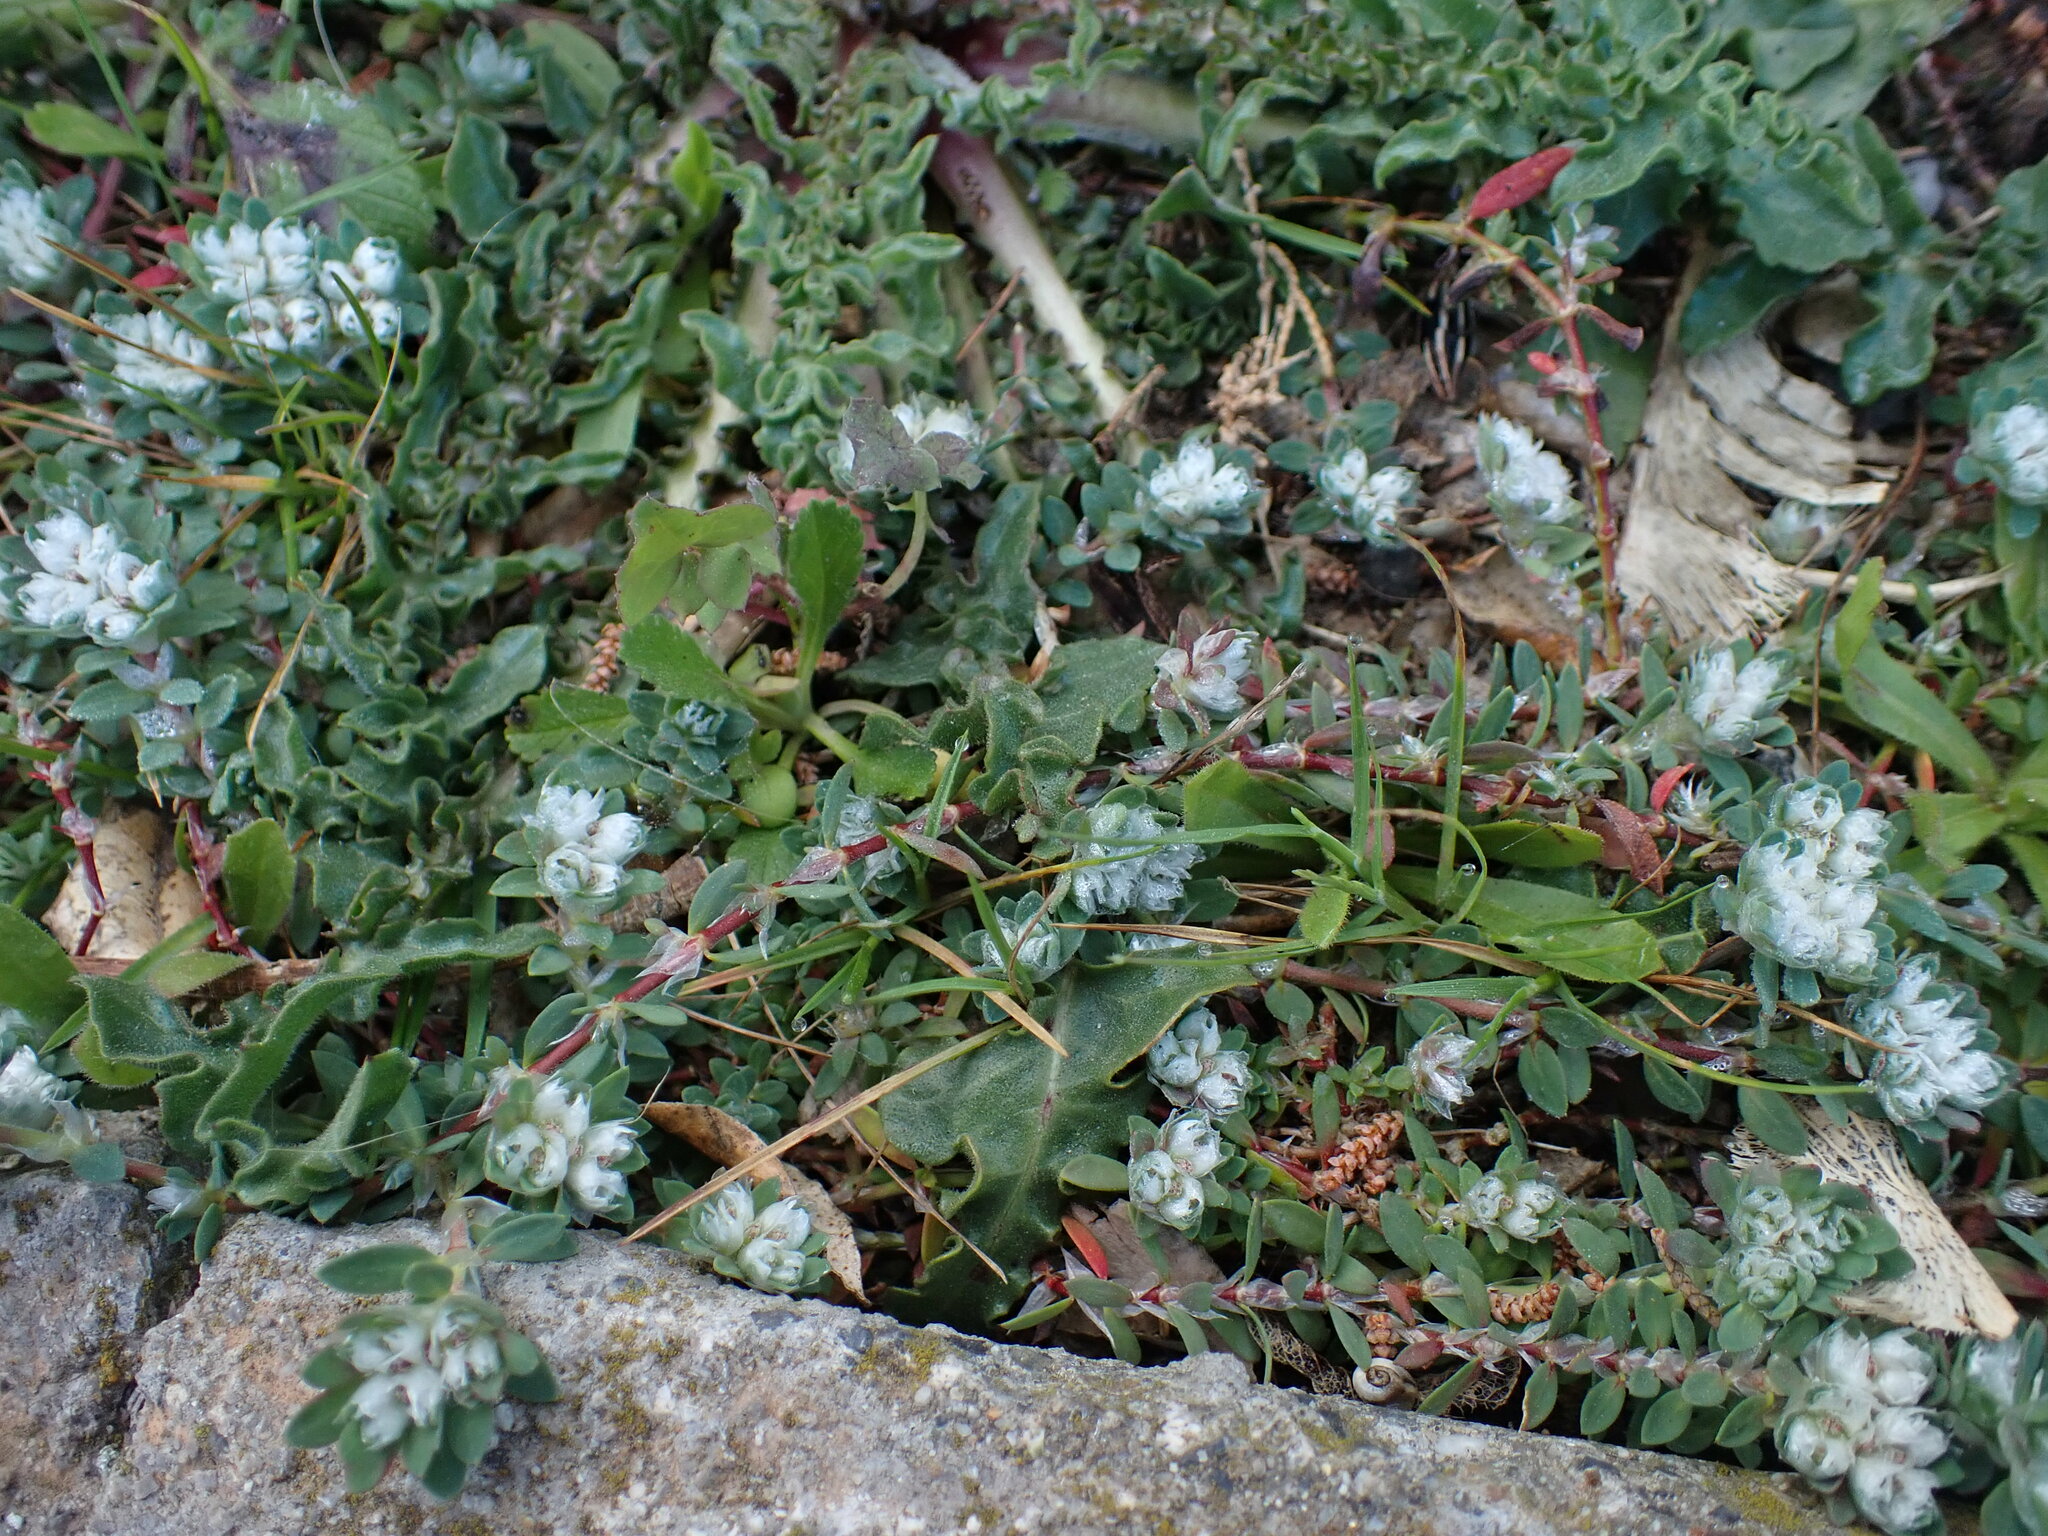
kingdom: Plantae
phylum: Tracheophyta
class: Magnoliopsida
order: Caryophyllales
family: Caryophyllaceae
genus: Paronychia
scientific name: Paronychia argentea
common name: Silver nailroot
